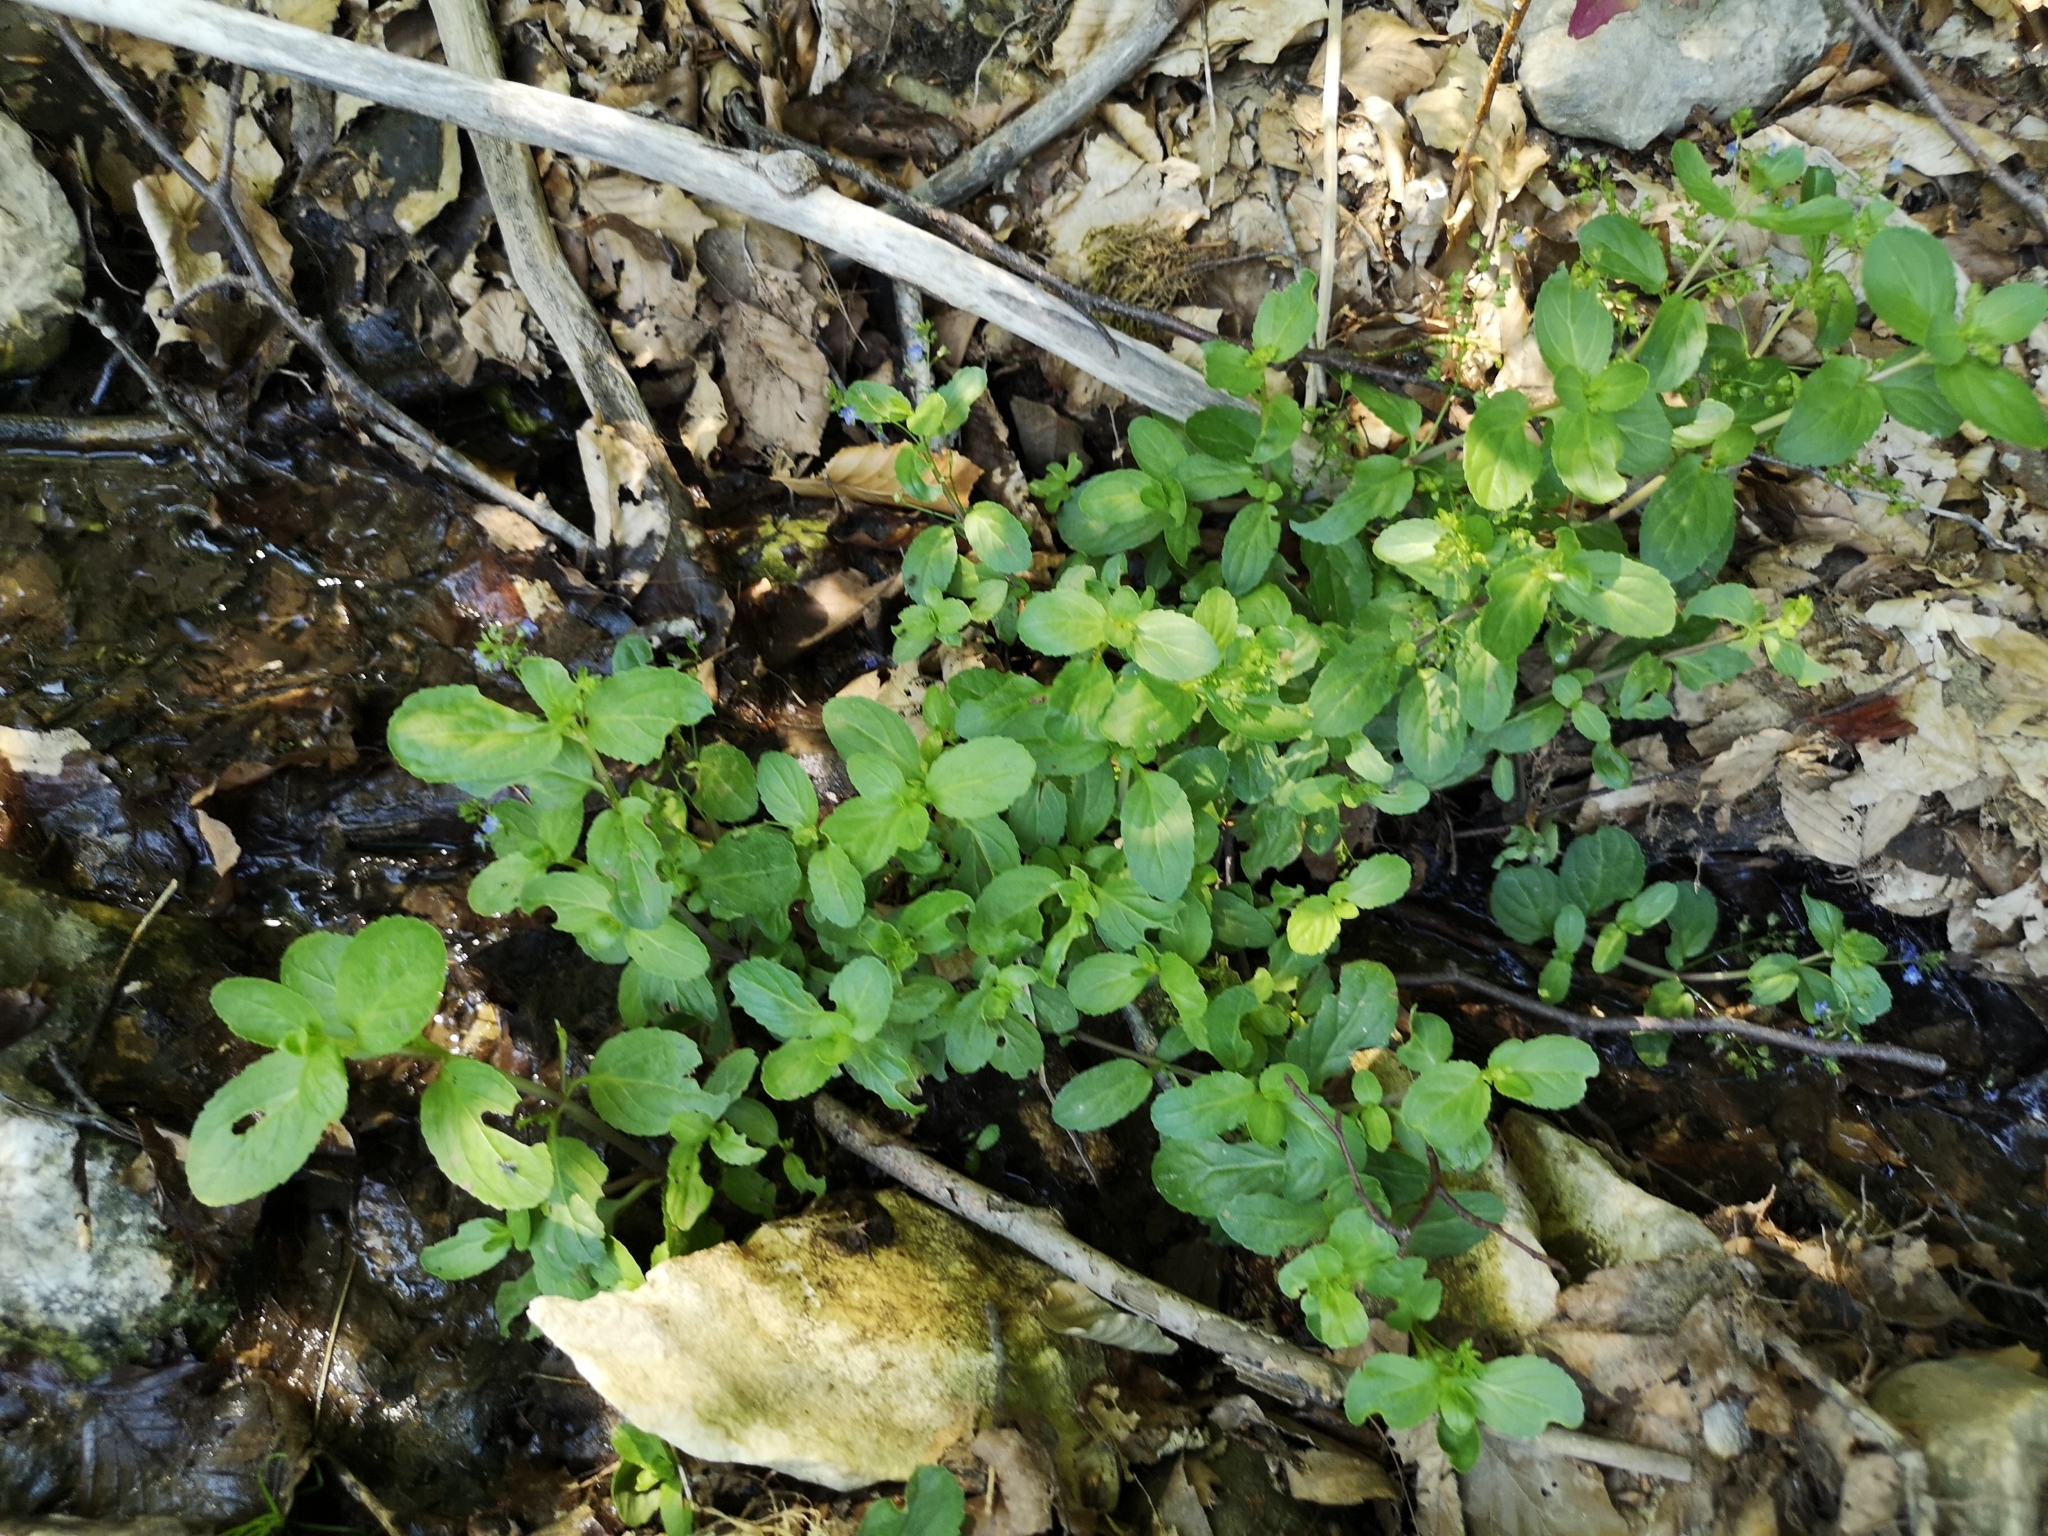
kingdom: Plantae
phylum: Tracheophyta
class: Magnoliopsida
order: Lamiales
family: Plantaginaceae
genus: Veronica
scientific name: Veronica beccabunga
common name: Brooklime
